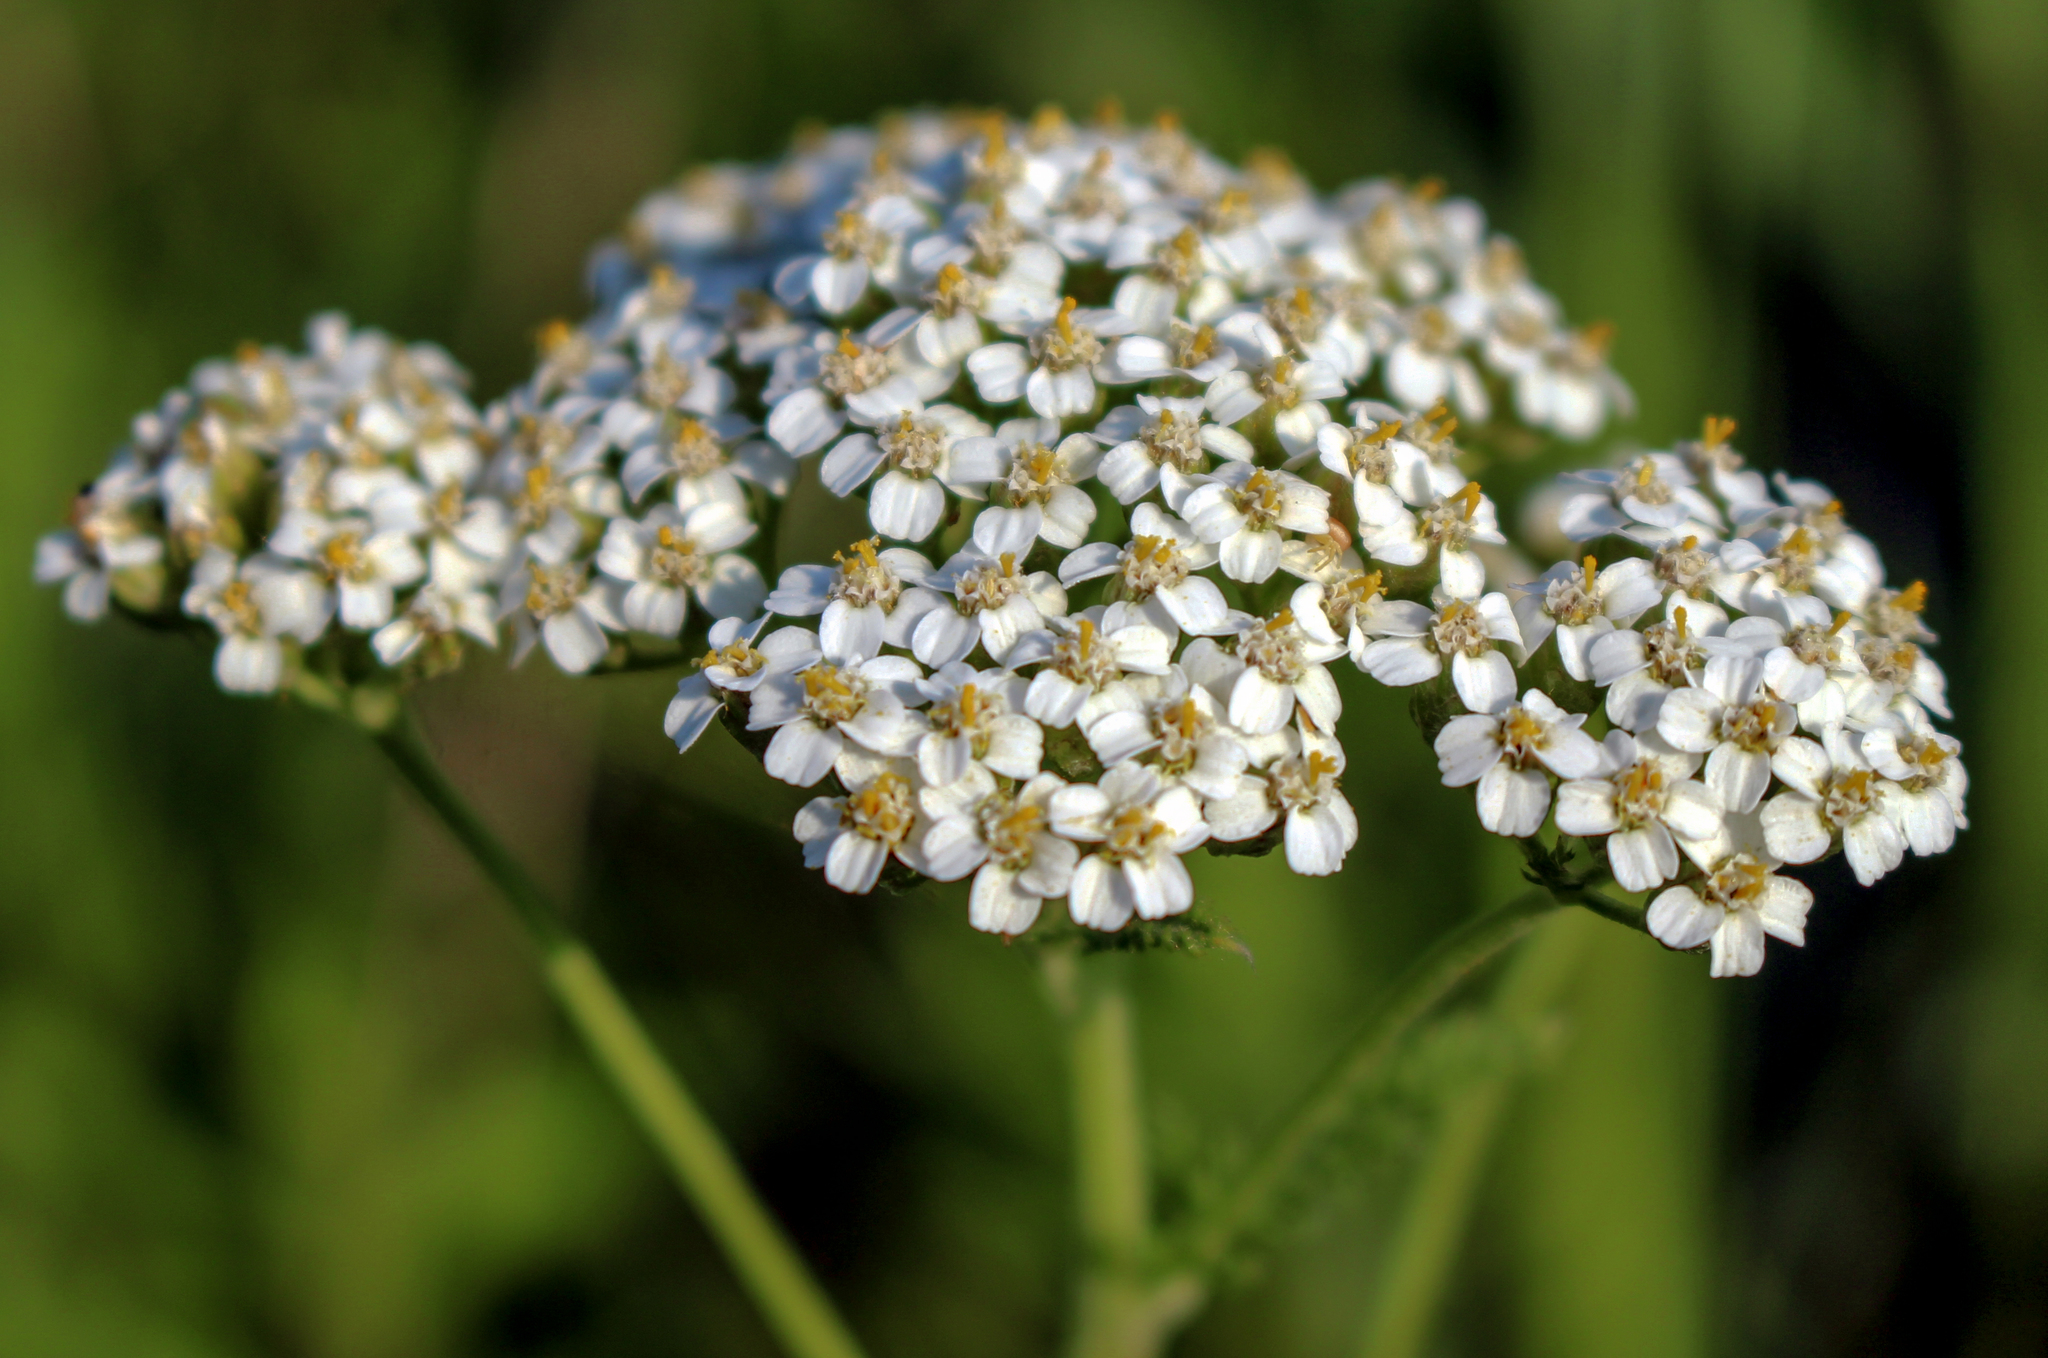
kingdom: Plantae
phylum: Tracheophyta
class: Magnoliopsida
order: Asterales
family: Asteraceae
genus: Achillea
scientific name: Achillea millefolium
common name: Yarrow
